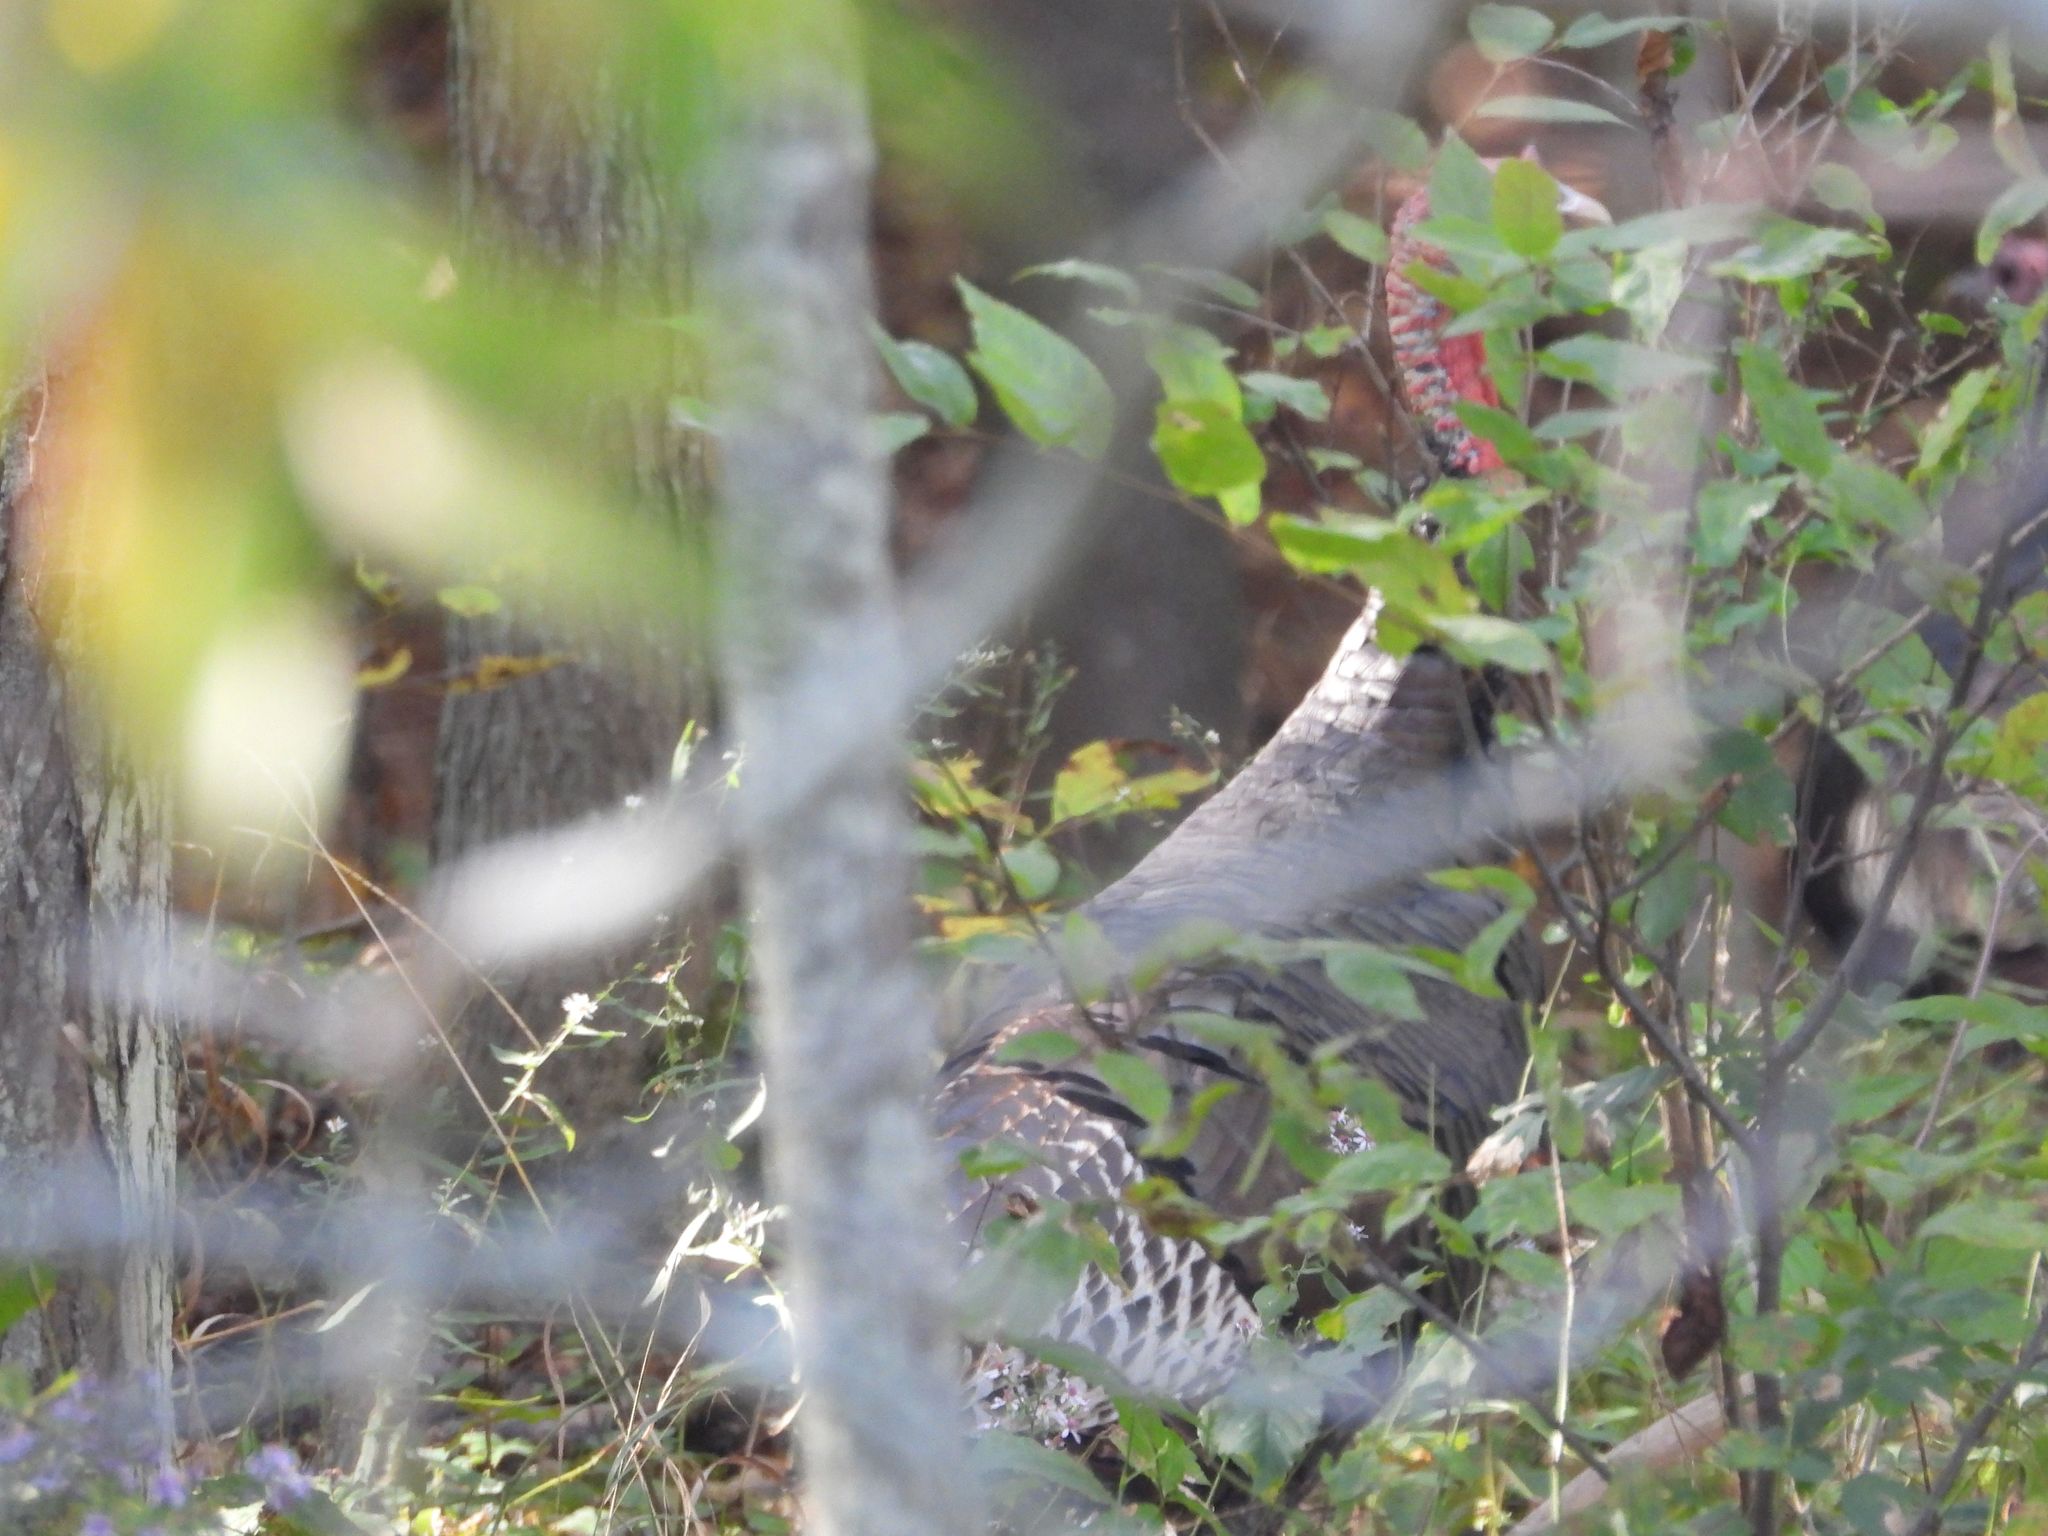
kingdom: Animalia
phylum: Chordata
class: Aves
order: Galliformes
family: Phasianidae
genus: Meleagris
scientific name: Meleagris gallopavo
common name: Wild turkey
